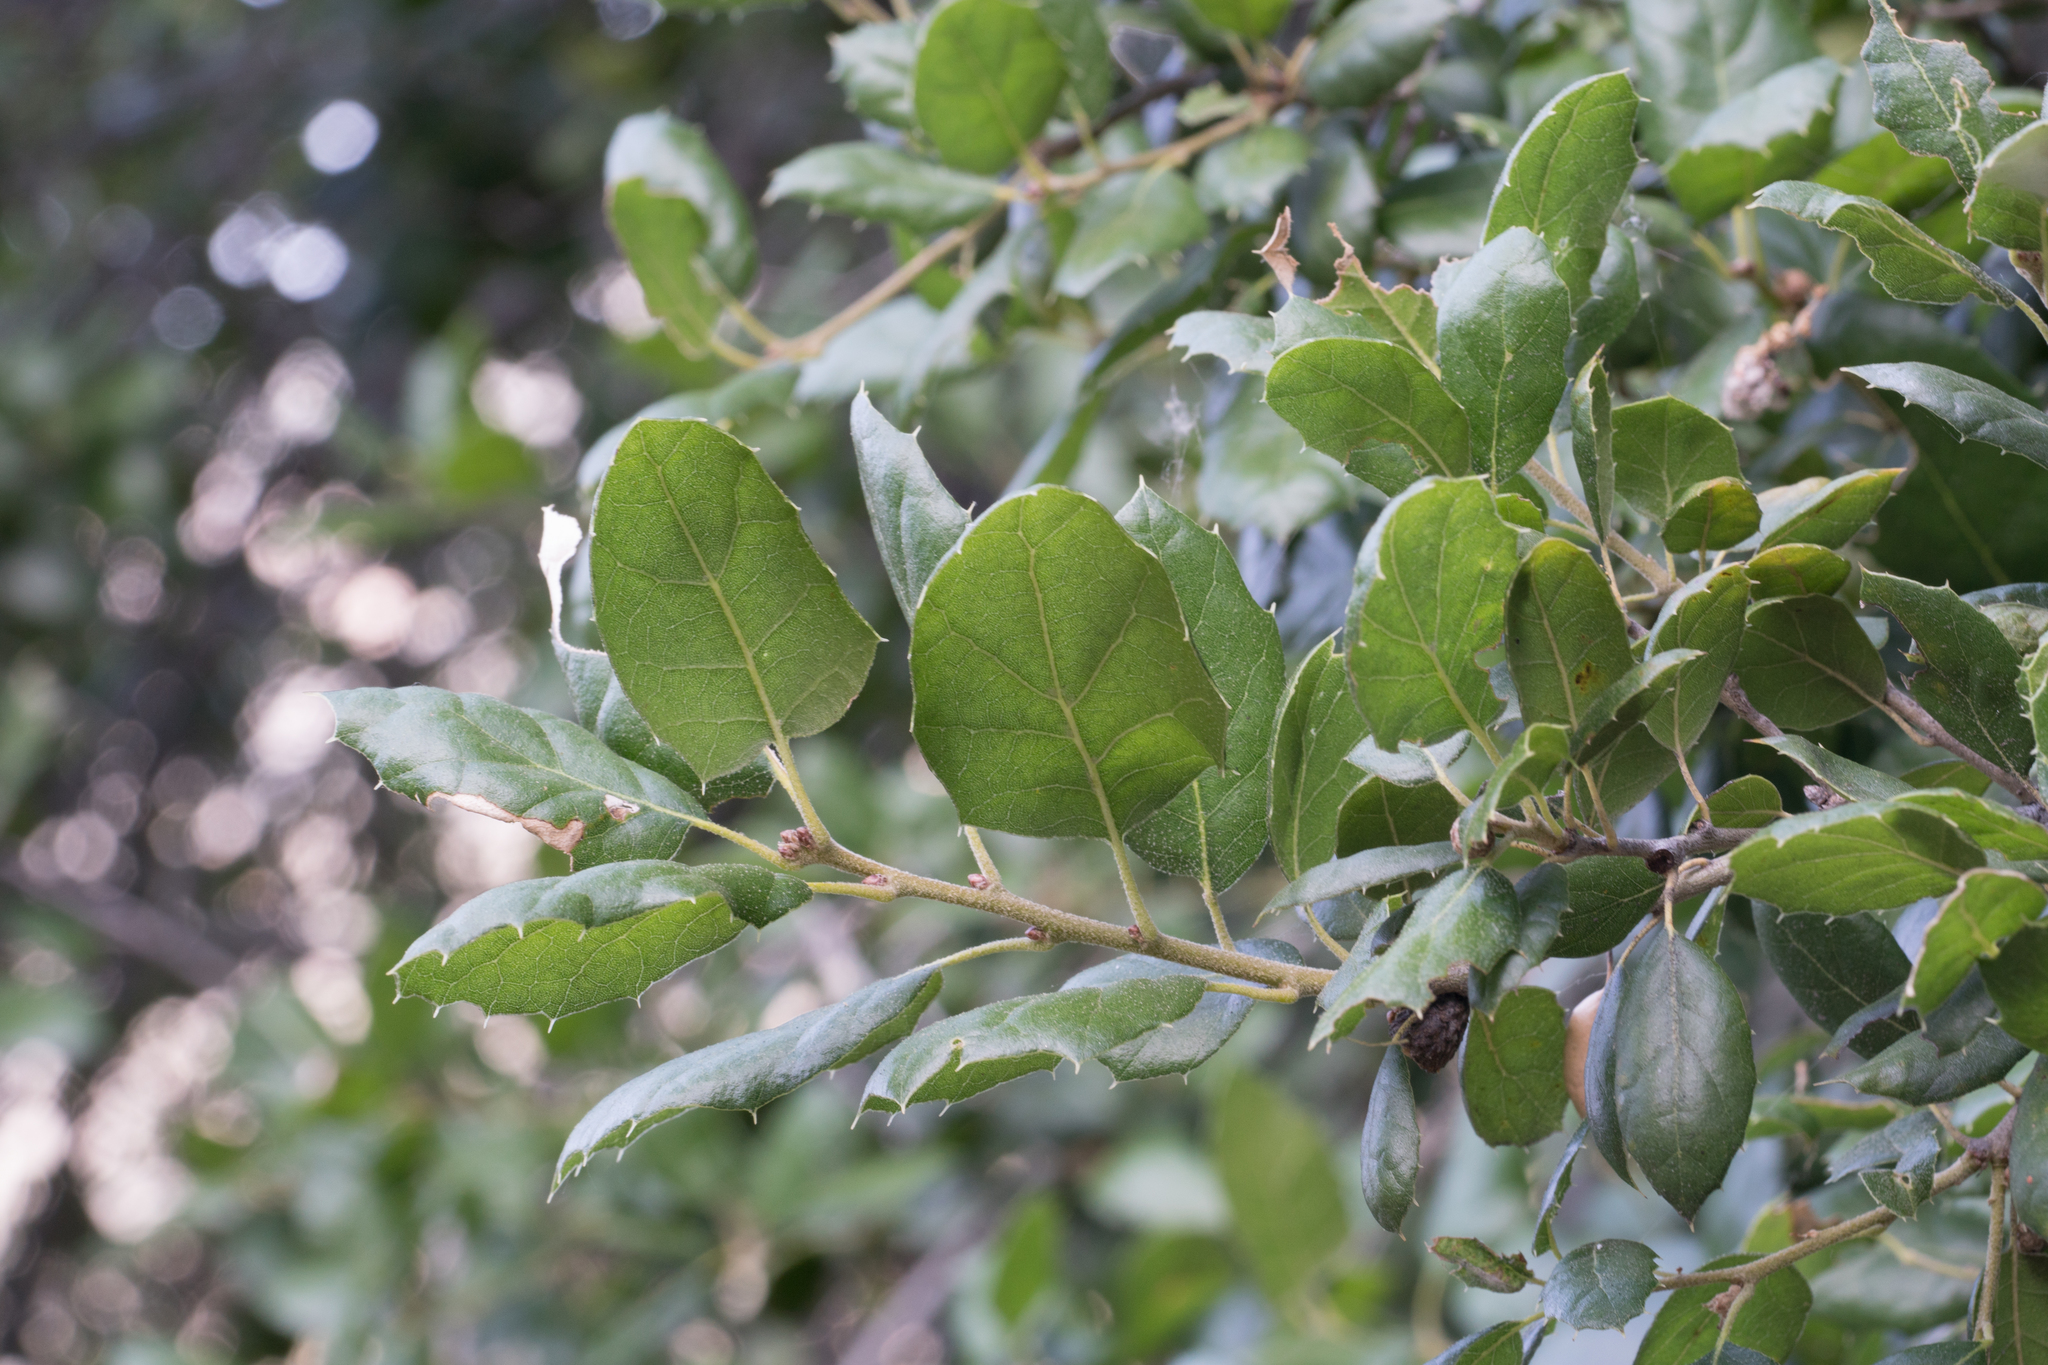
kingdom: Plantae
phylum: Tracheophyta
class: Magnoliopsida
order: Fagales
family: Fagaceae
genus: Quercus
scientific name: Quercus agrifolia
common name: California live oak
